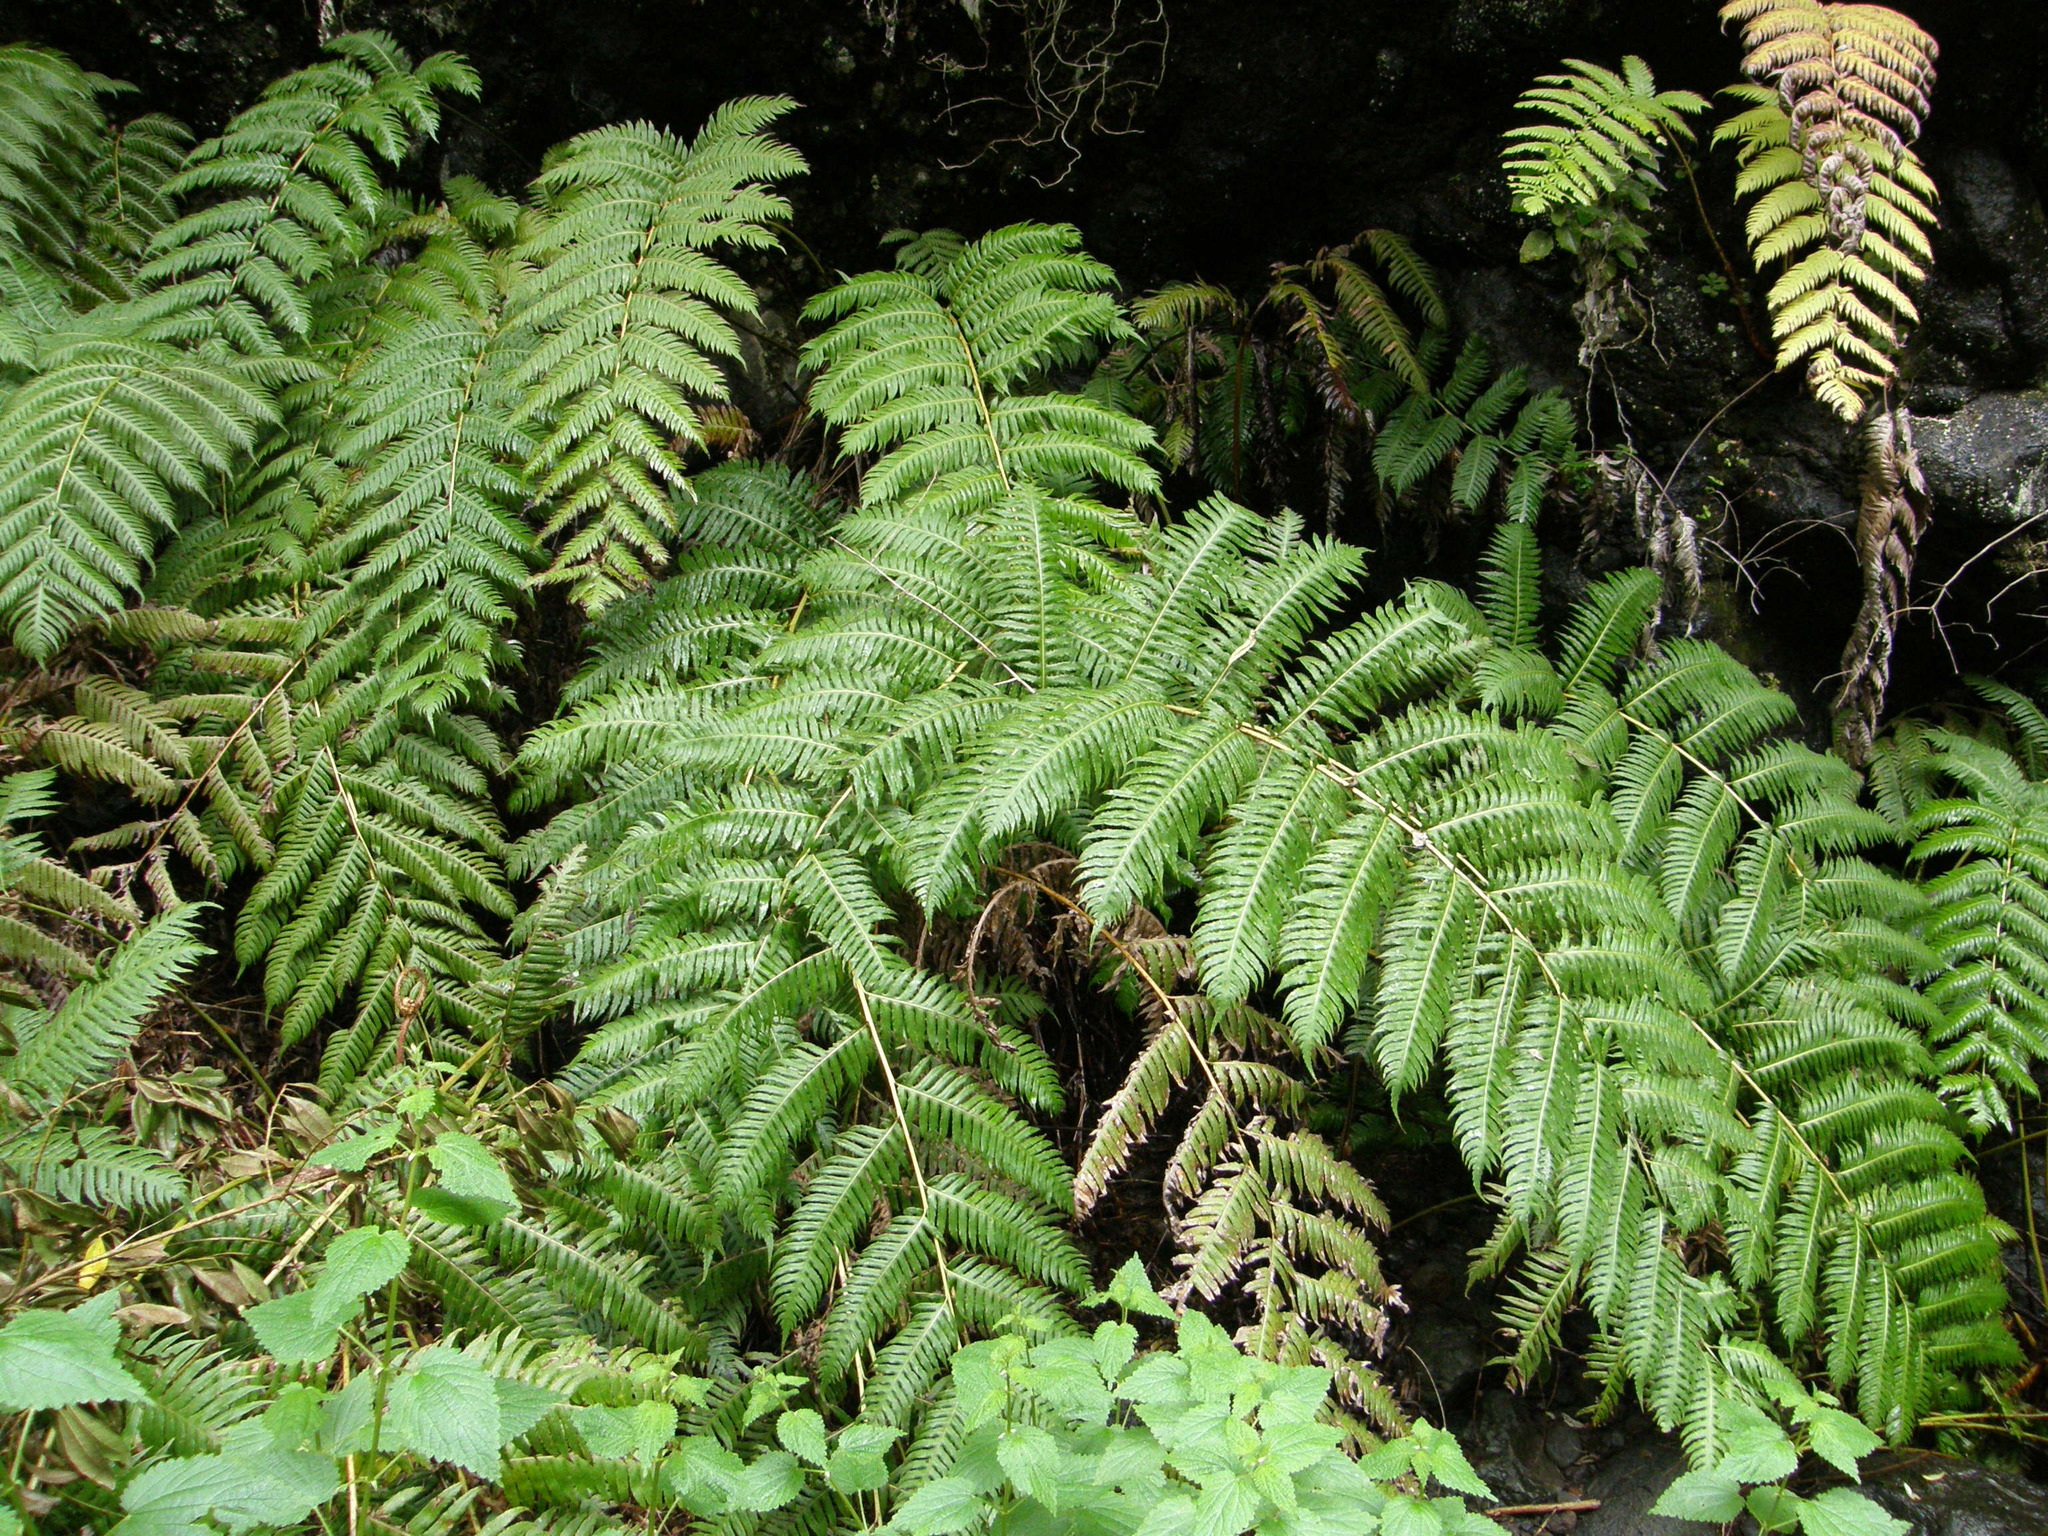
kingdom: Plantae
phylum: Tracheophyta
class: Polypodiopsida
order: Polypodiales
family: Blechnaceae
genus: Woodwardia
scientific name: Woodwardia radicans
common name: Rooting chainfern
